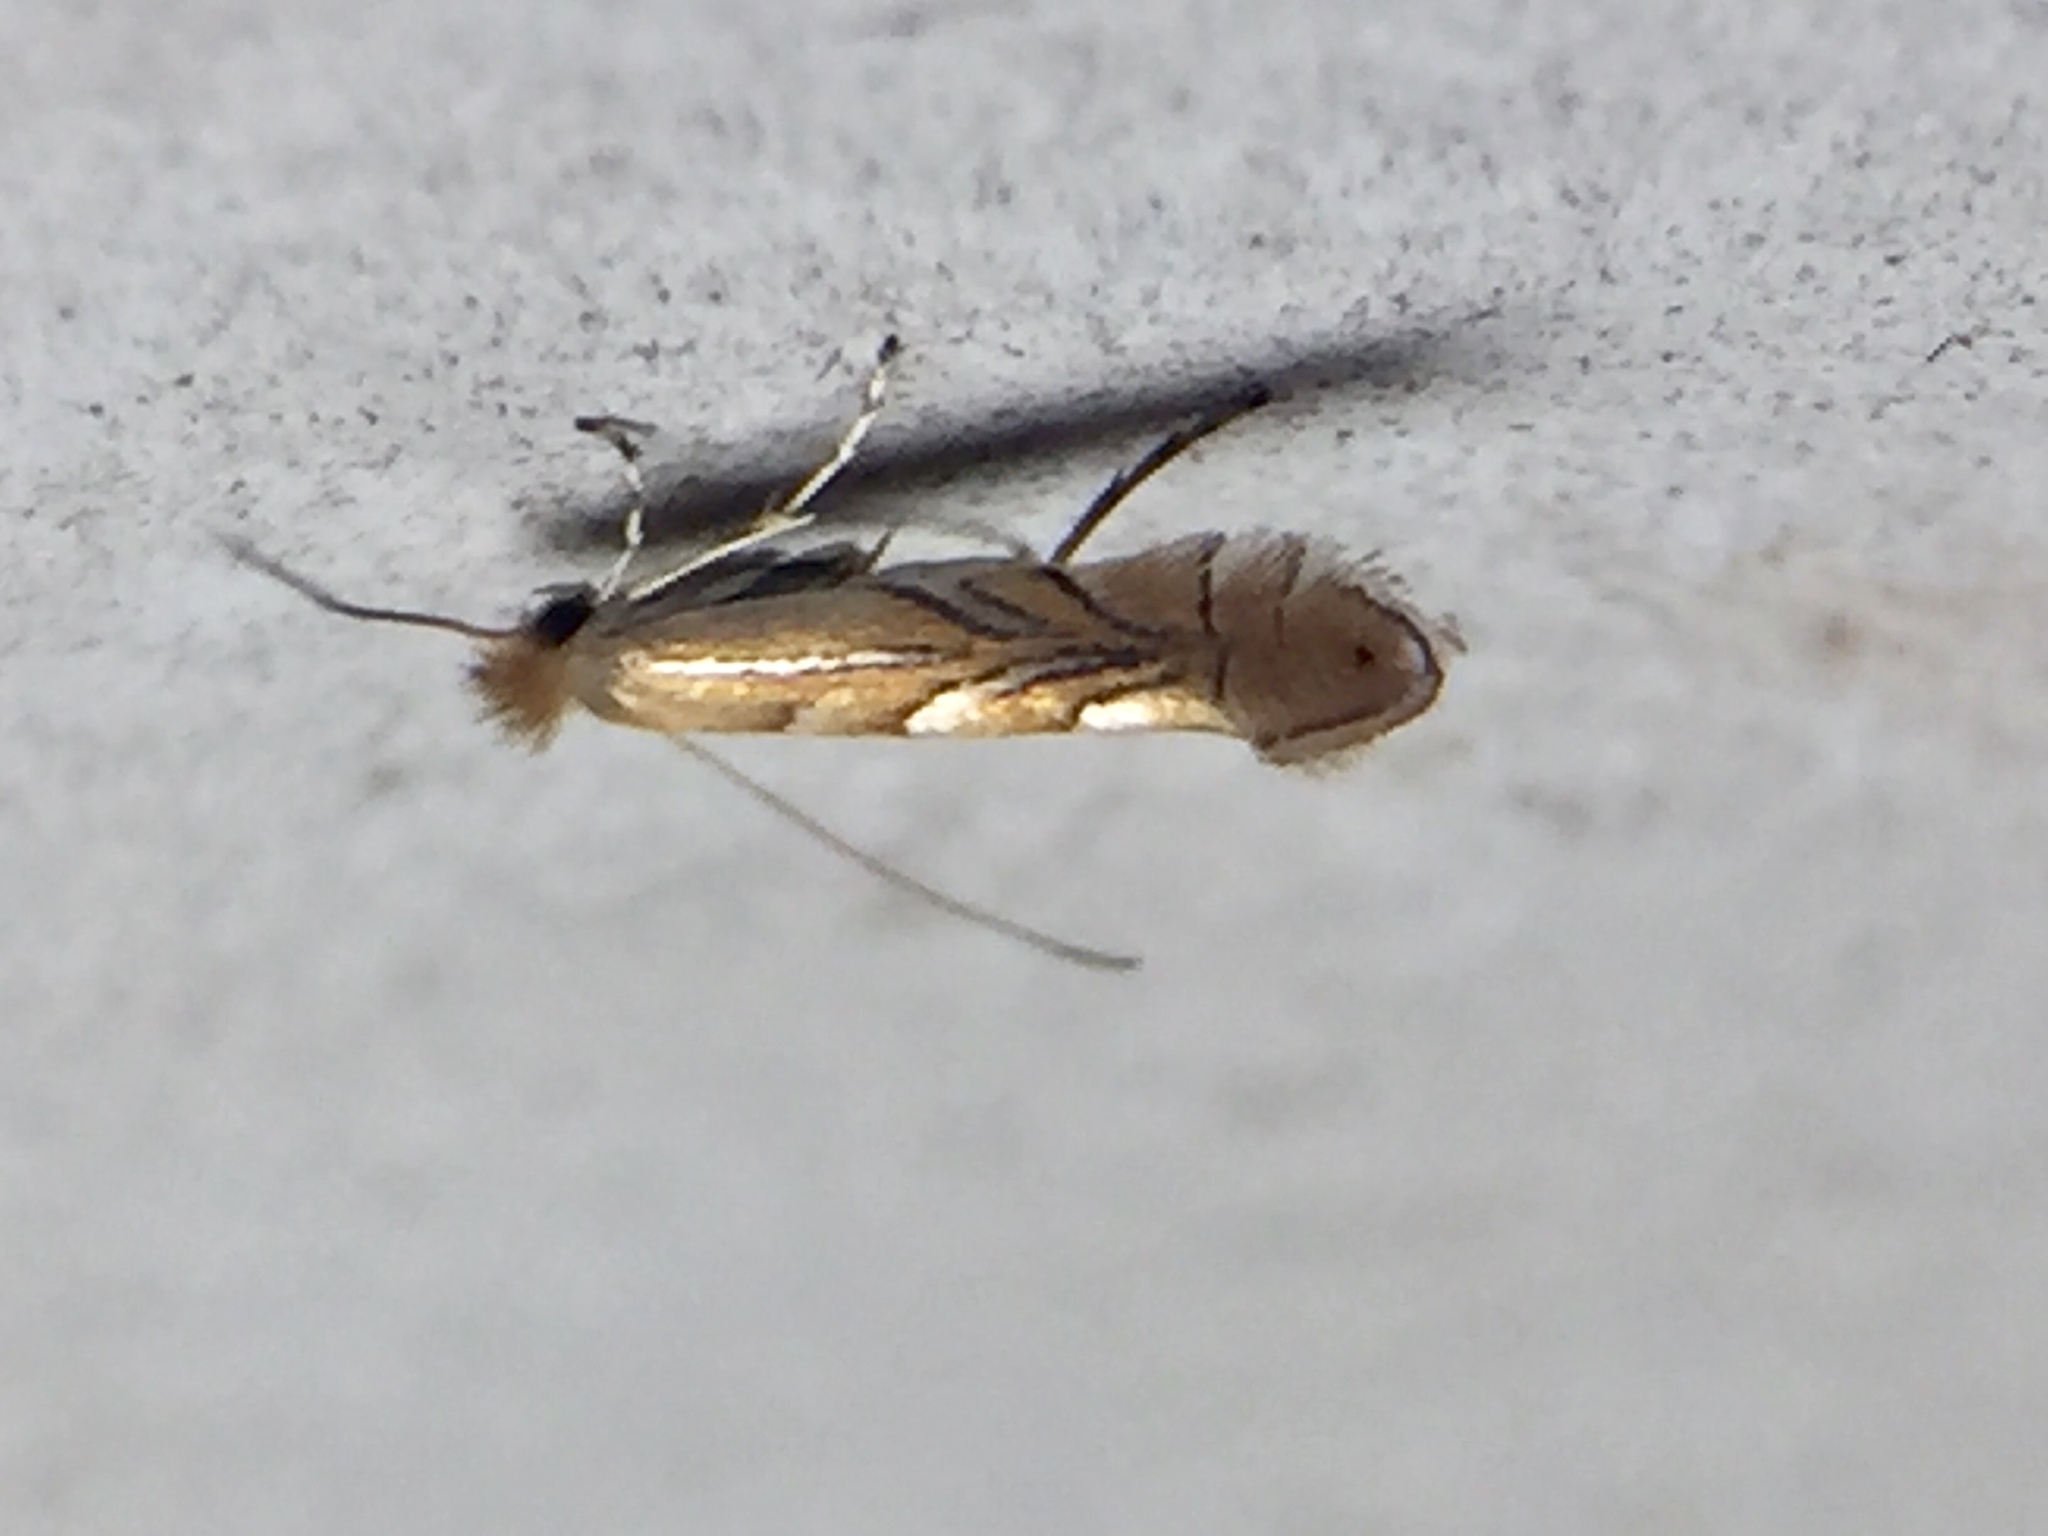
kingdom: Animalia
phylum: Arthropoda
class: Insecta
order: Lepidoptera
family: Gracillariidae
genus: Phyllonorycter
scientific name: Phyllonorycter messaniella
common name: Garden midget
